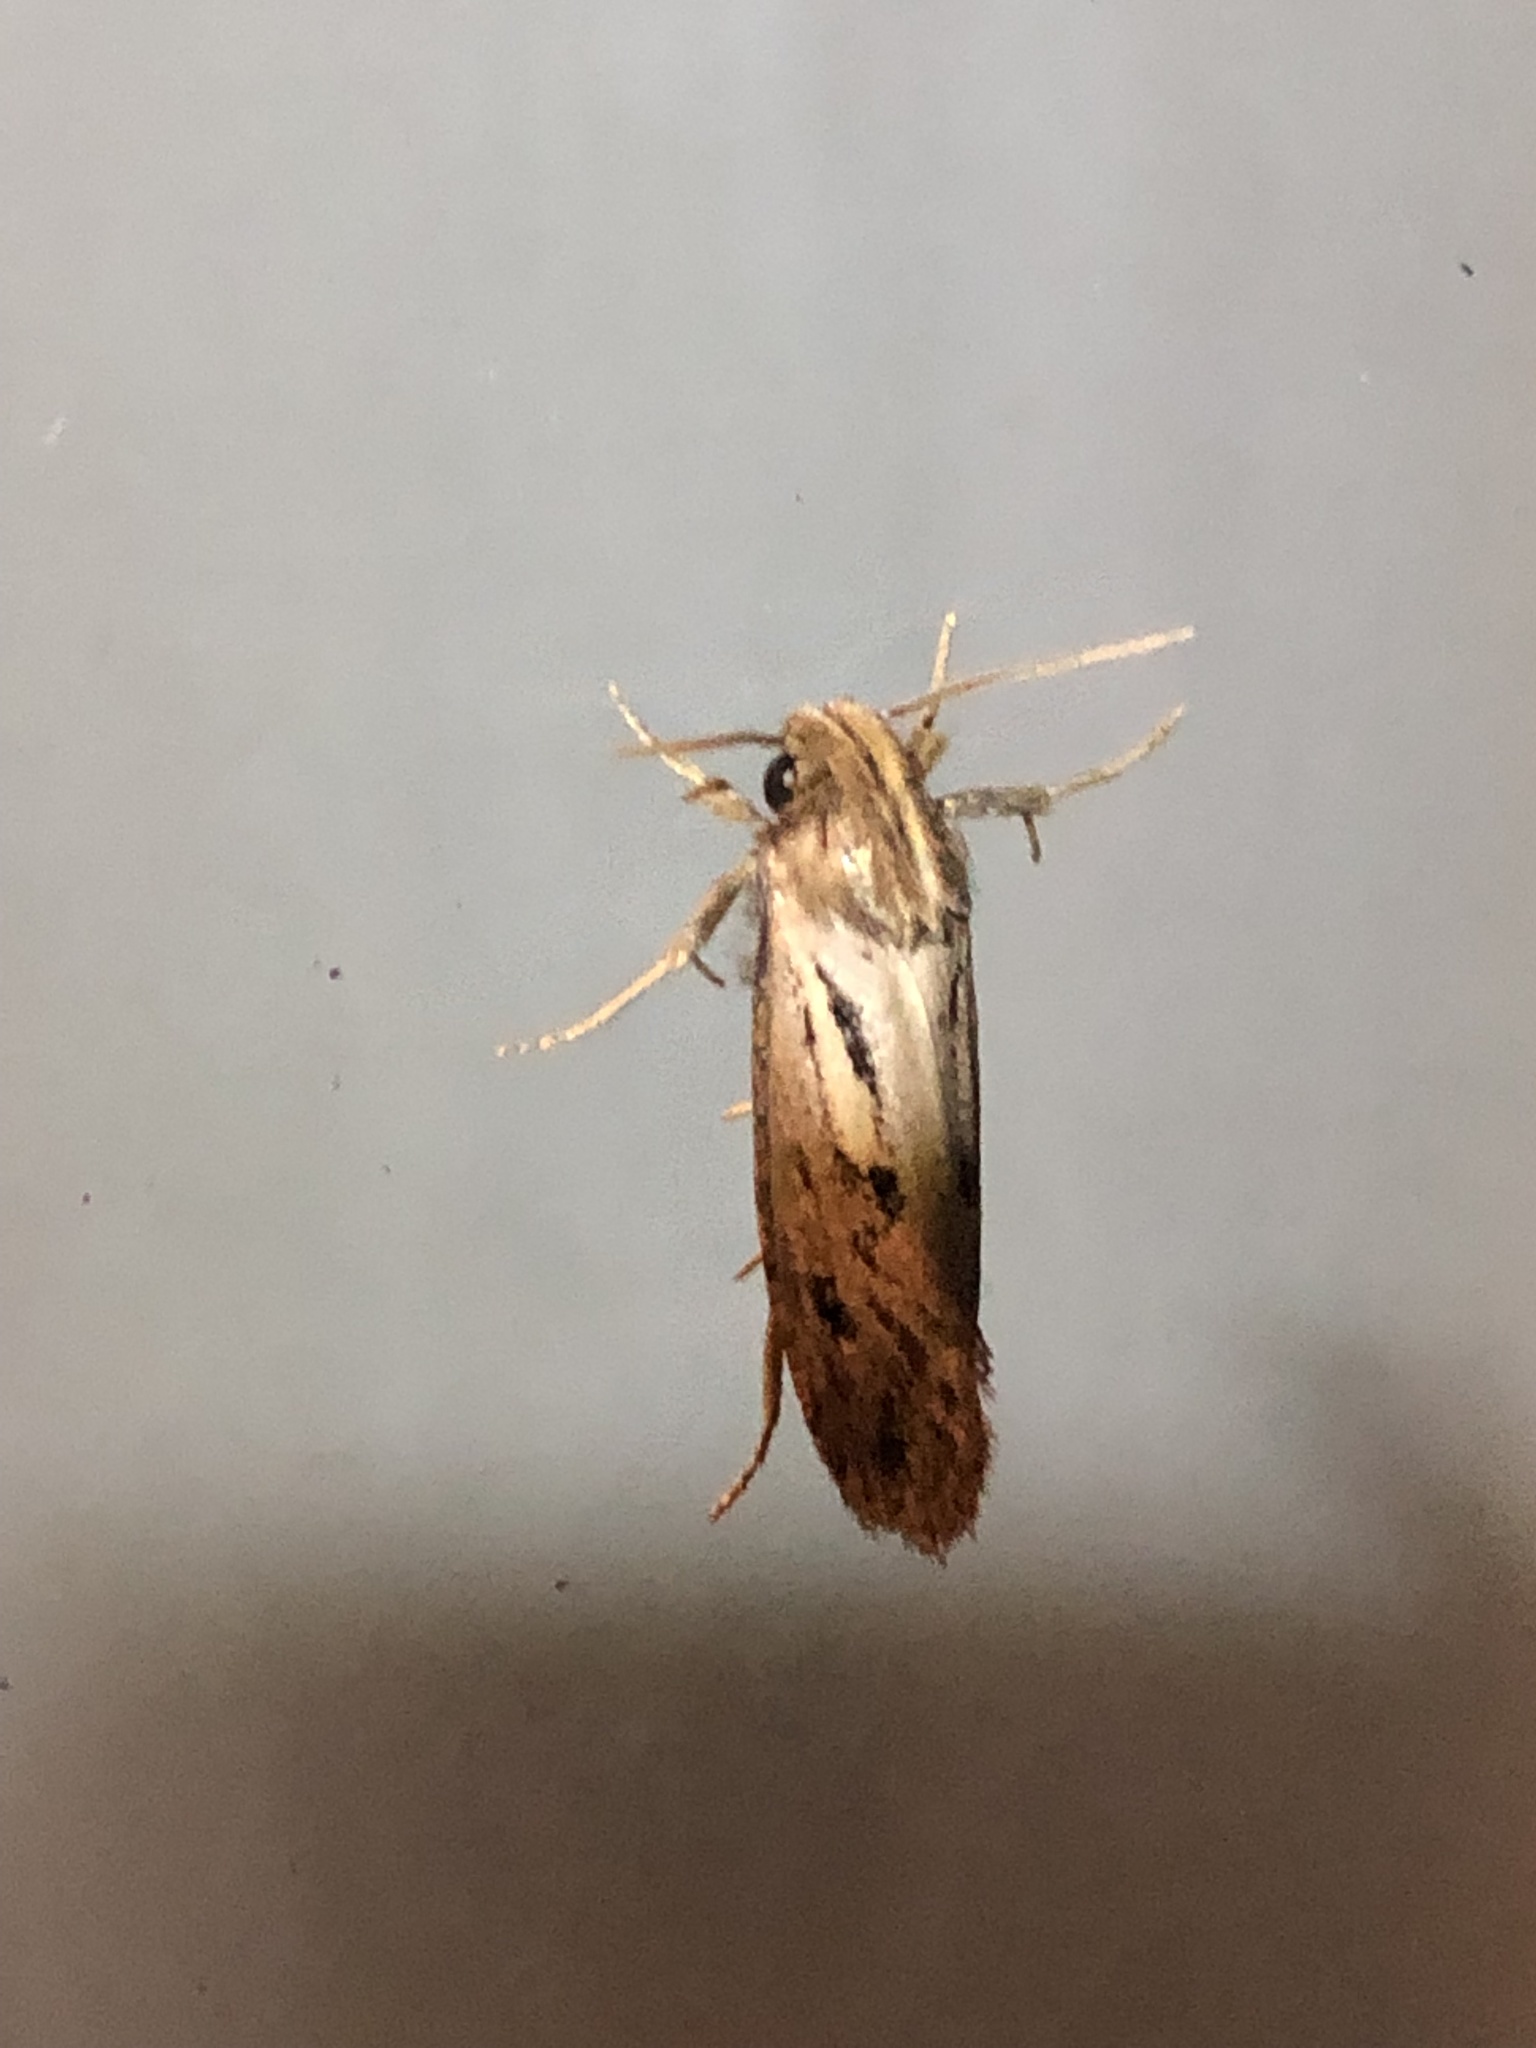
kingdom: Animalia
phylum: Arthropoda
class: Insecta
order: Lepidoptera
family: Tineidae
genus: Acrolophus
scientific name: Acrolophus popeanella
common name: Clemens' grass tubeworm moth
